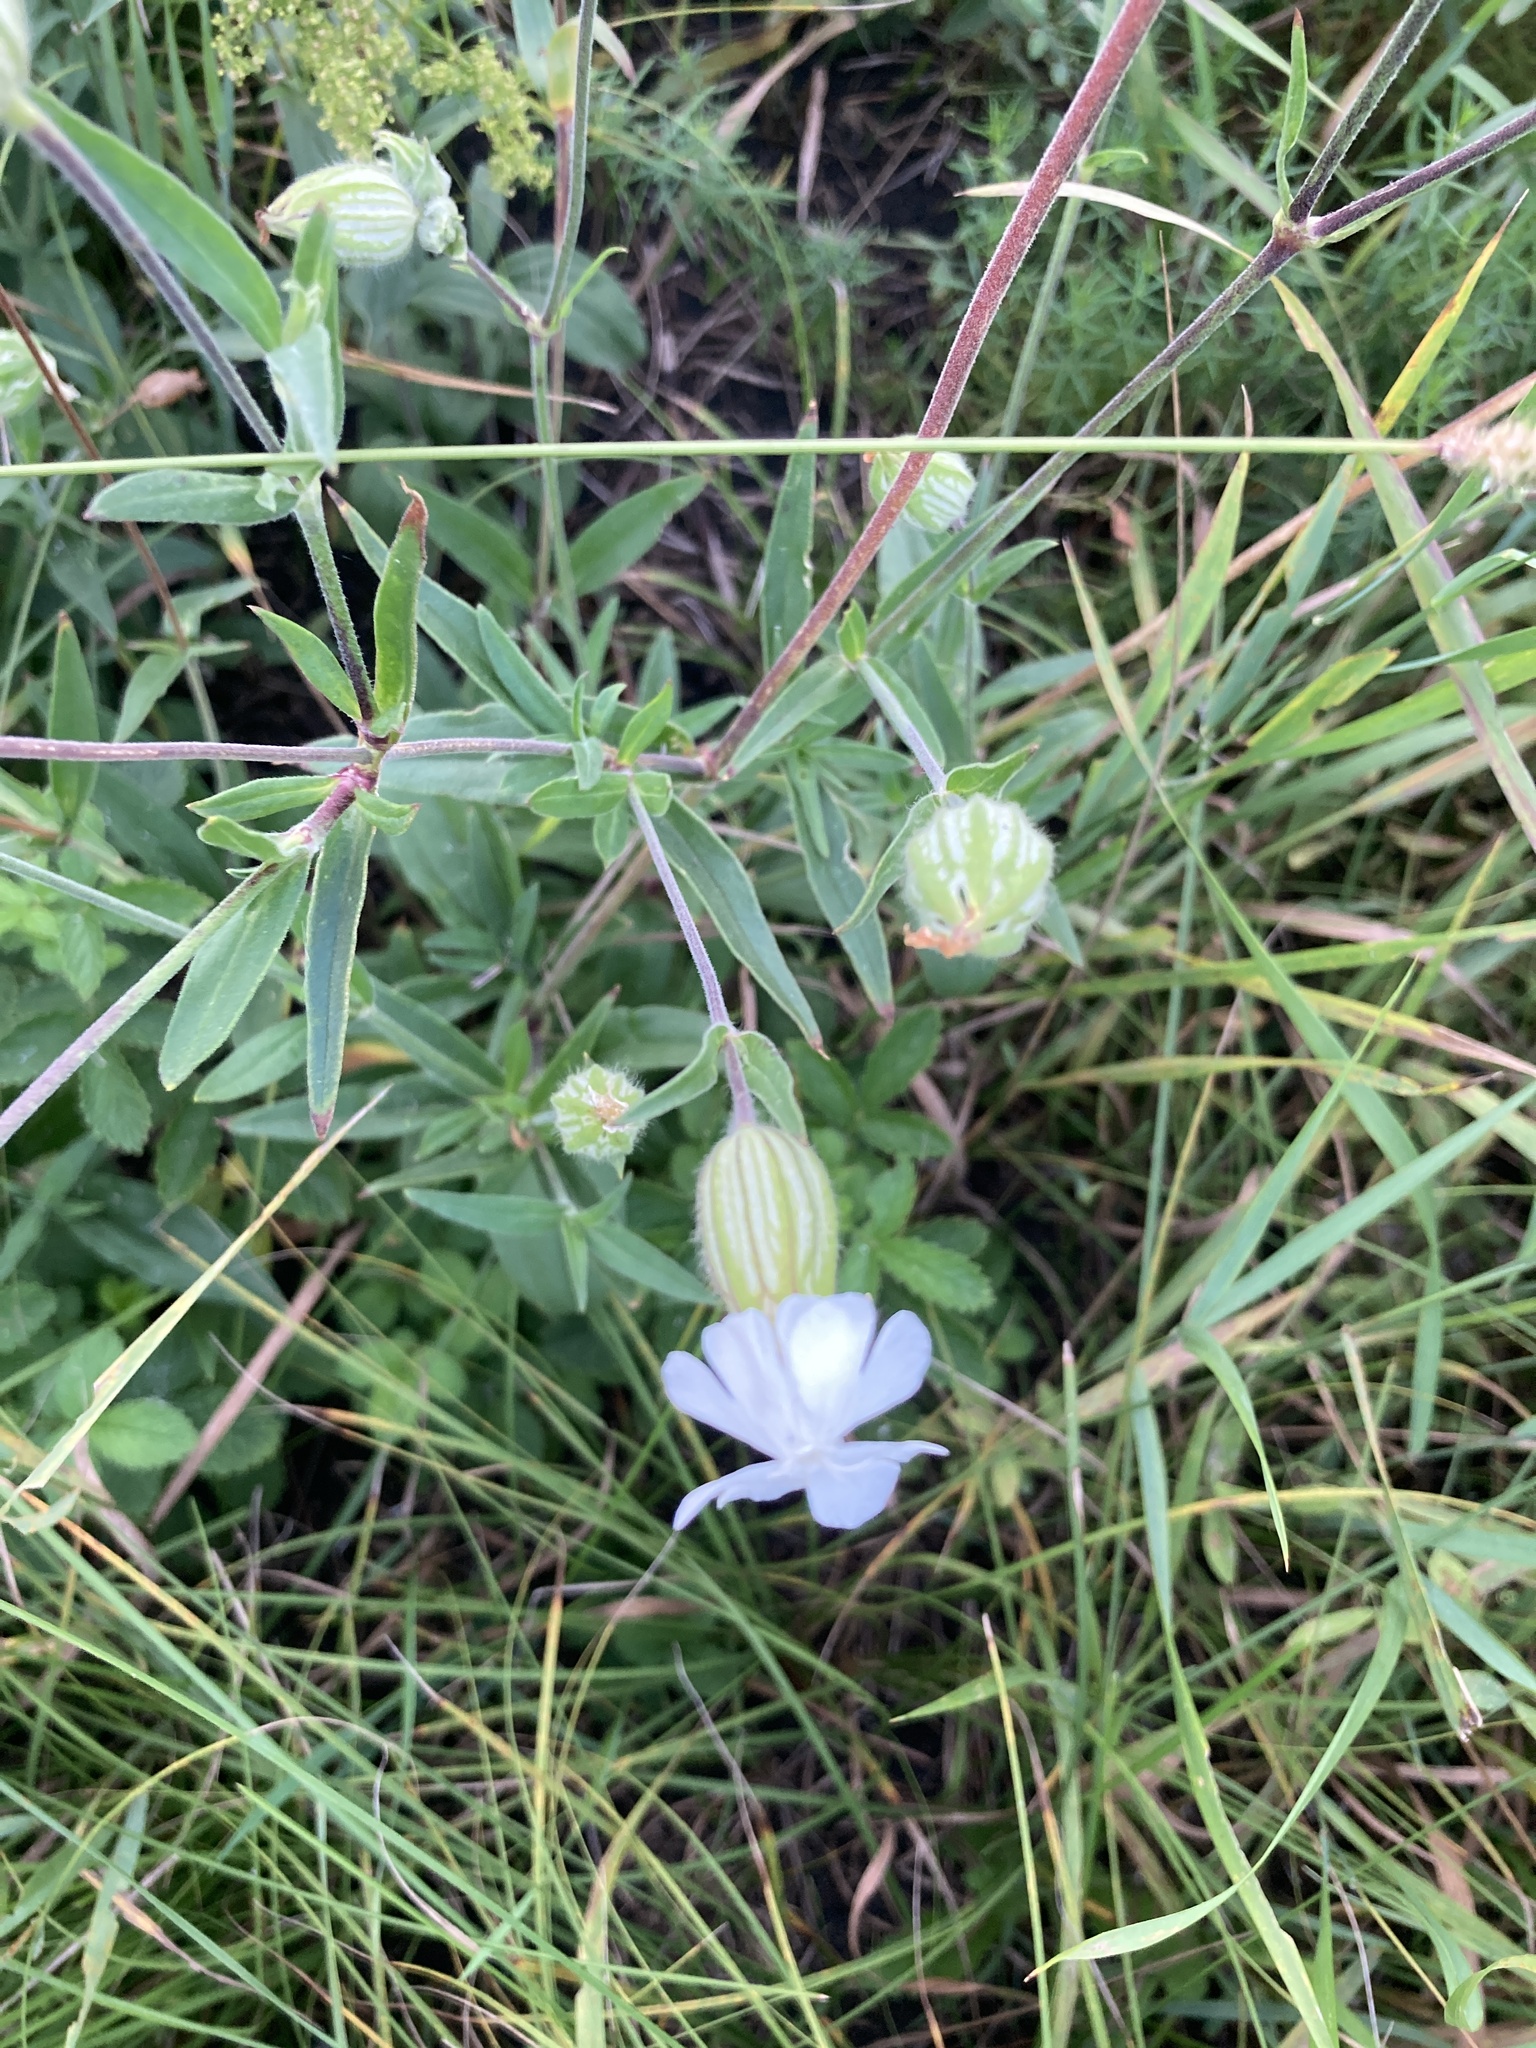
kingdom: Plantae
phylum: Tracheophyta
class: Magnoliopsida
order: Caryophyllales
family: Caryophyllaceae
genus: Silene
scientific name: Silene latifolia
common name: White campion
